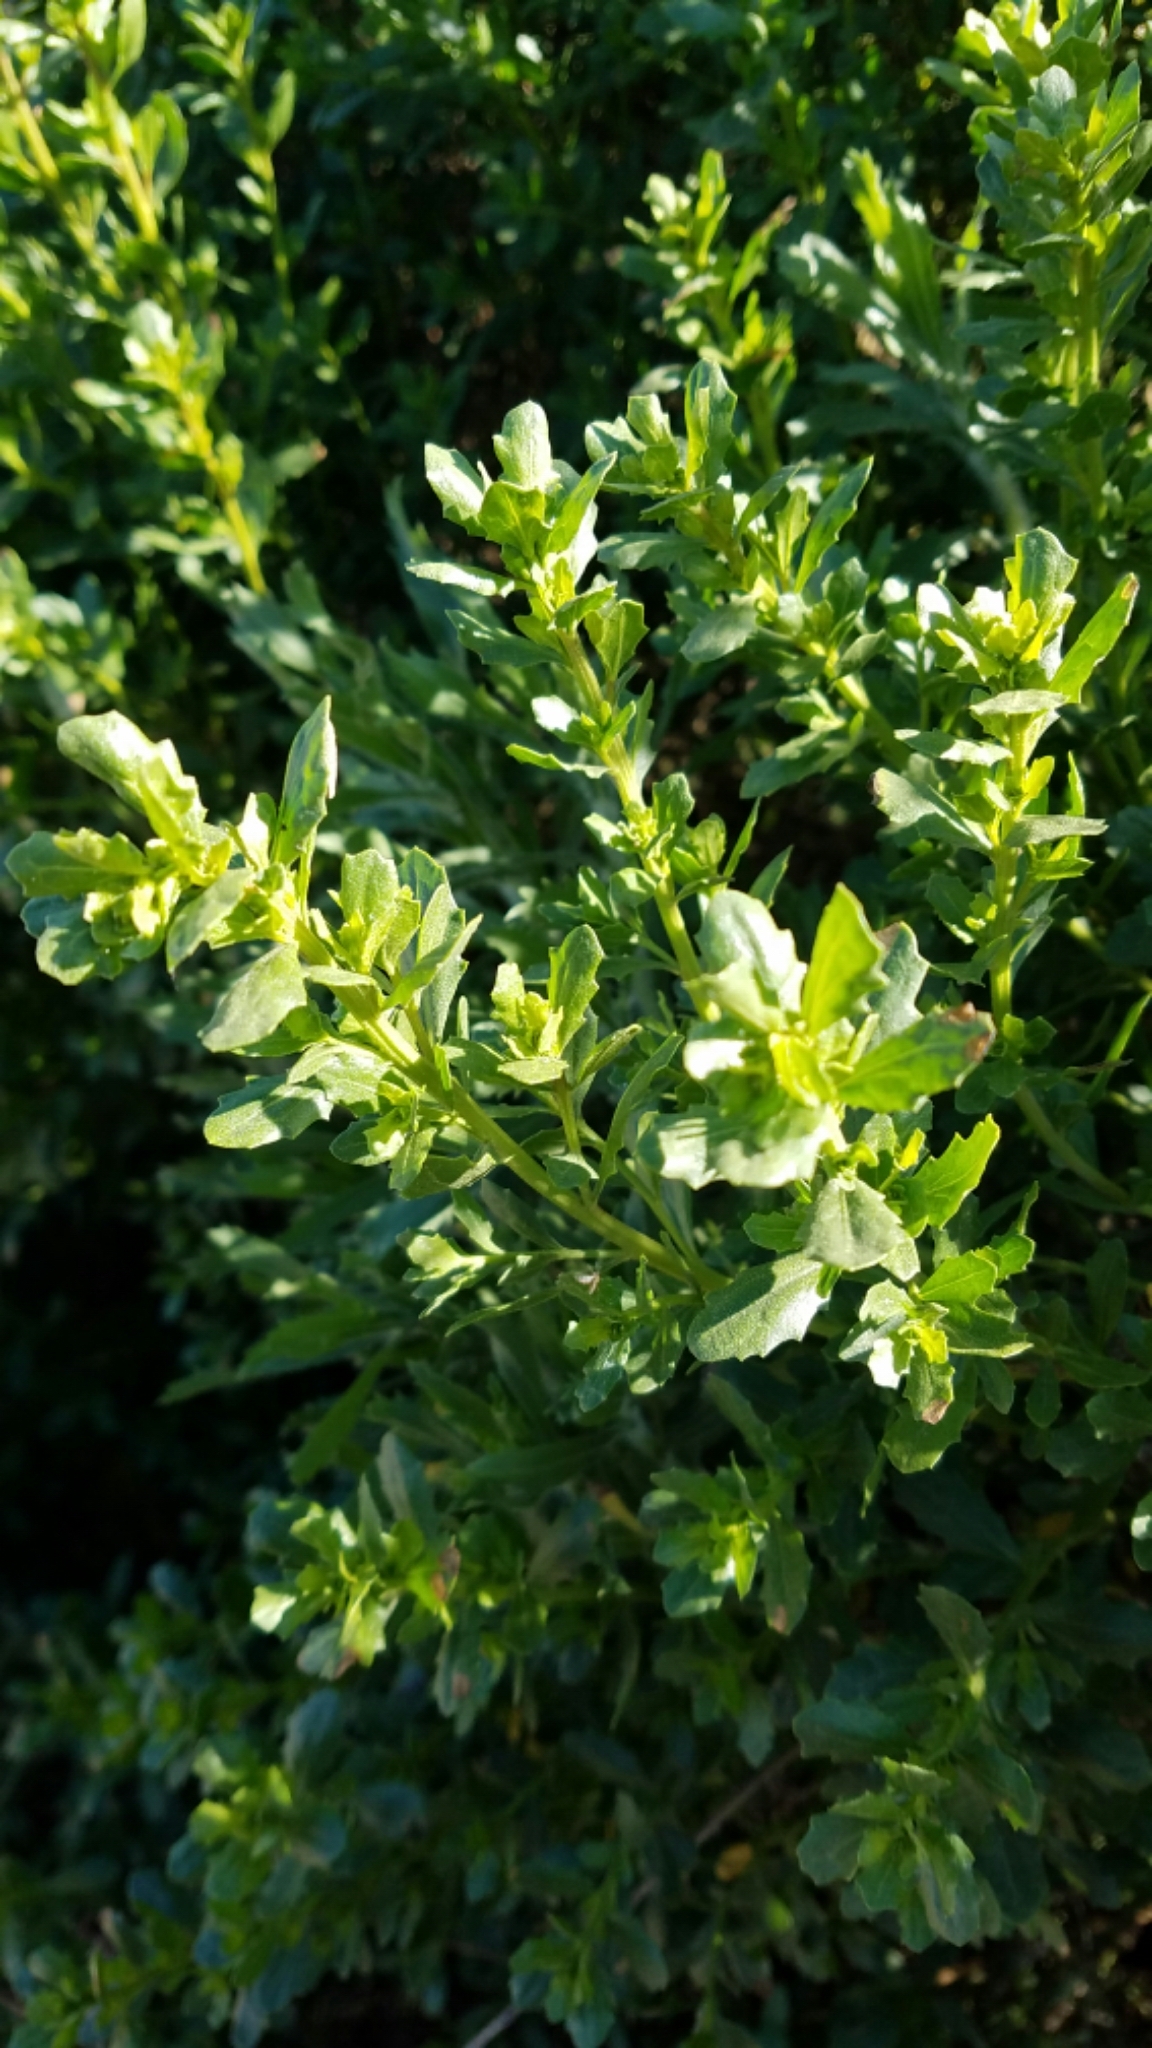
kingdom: Plantae
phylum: Tracheophyta
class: Magnoliopsida
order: Asterales
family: Asteraceae
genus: Baccharis
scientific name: Baccharis pilularis
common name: Coyotebrush
